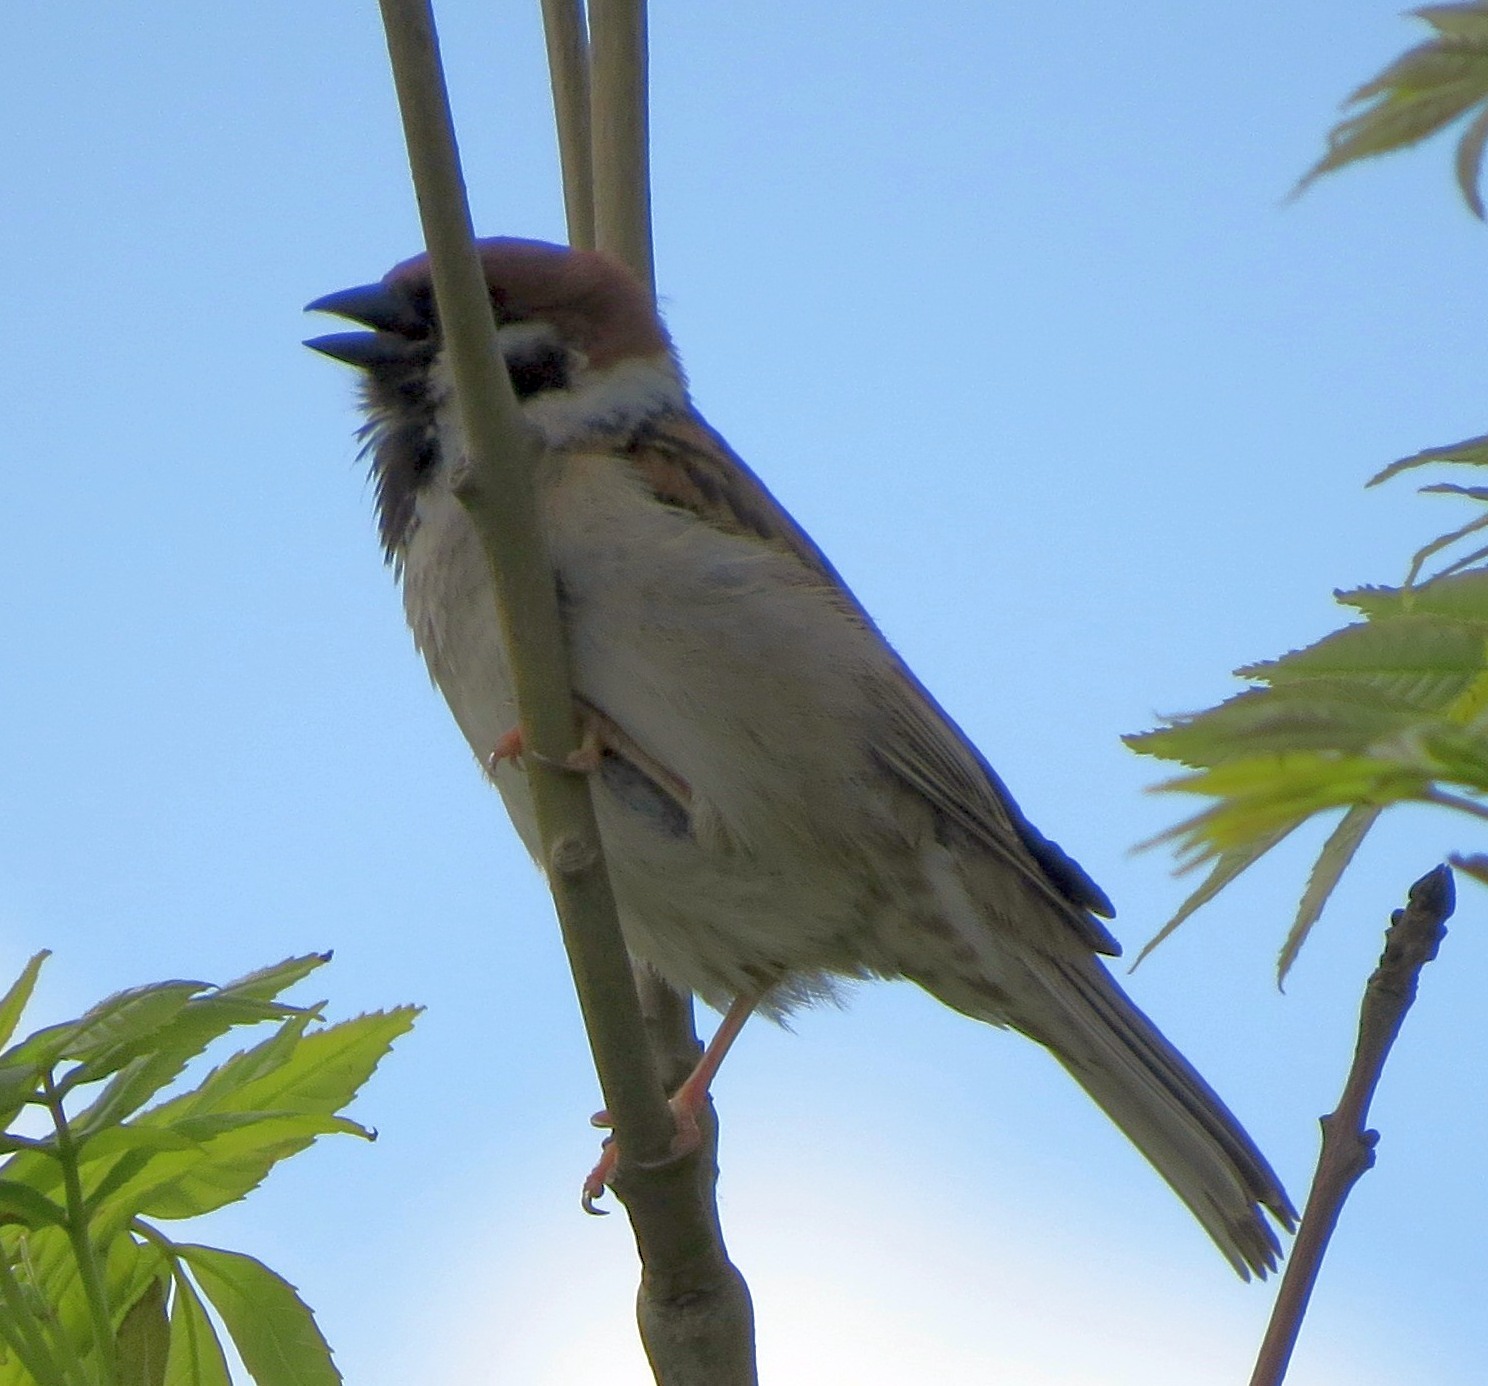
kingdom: Animalia
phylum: Chordata
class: Aves
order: Passeriformes
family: Passeridae
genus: Passer
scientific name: Passer montanus
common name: Eurasian tree sparrow
